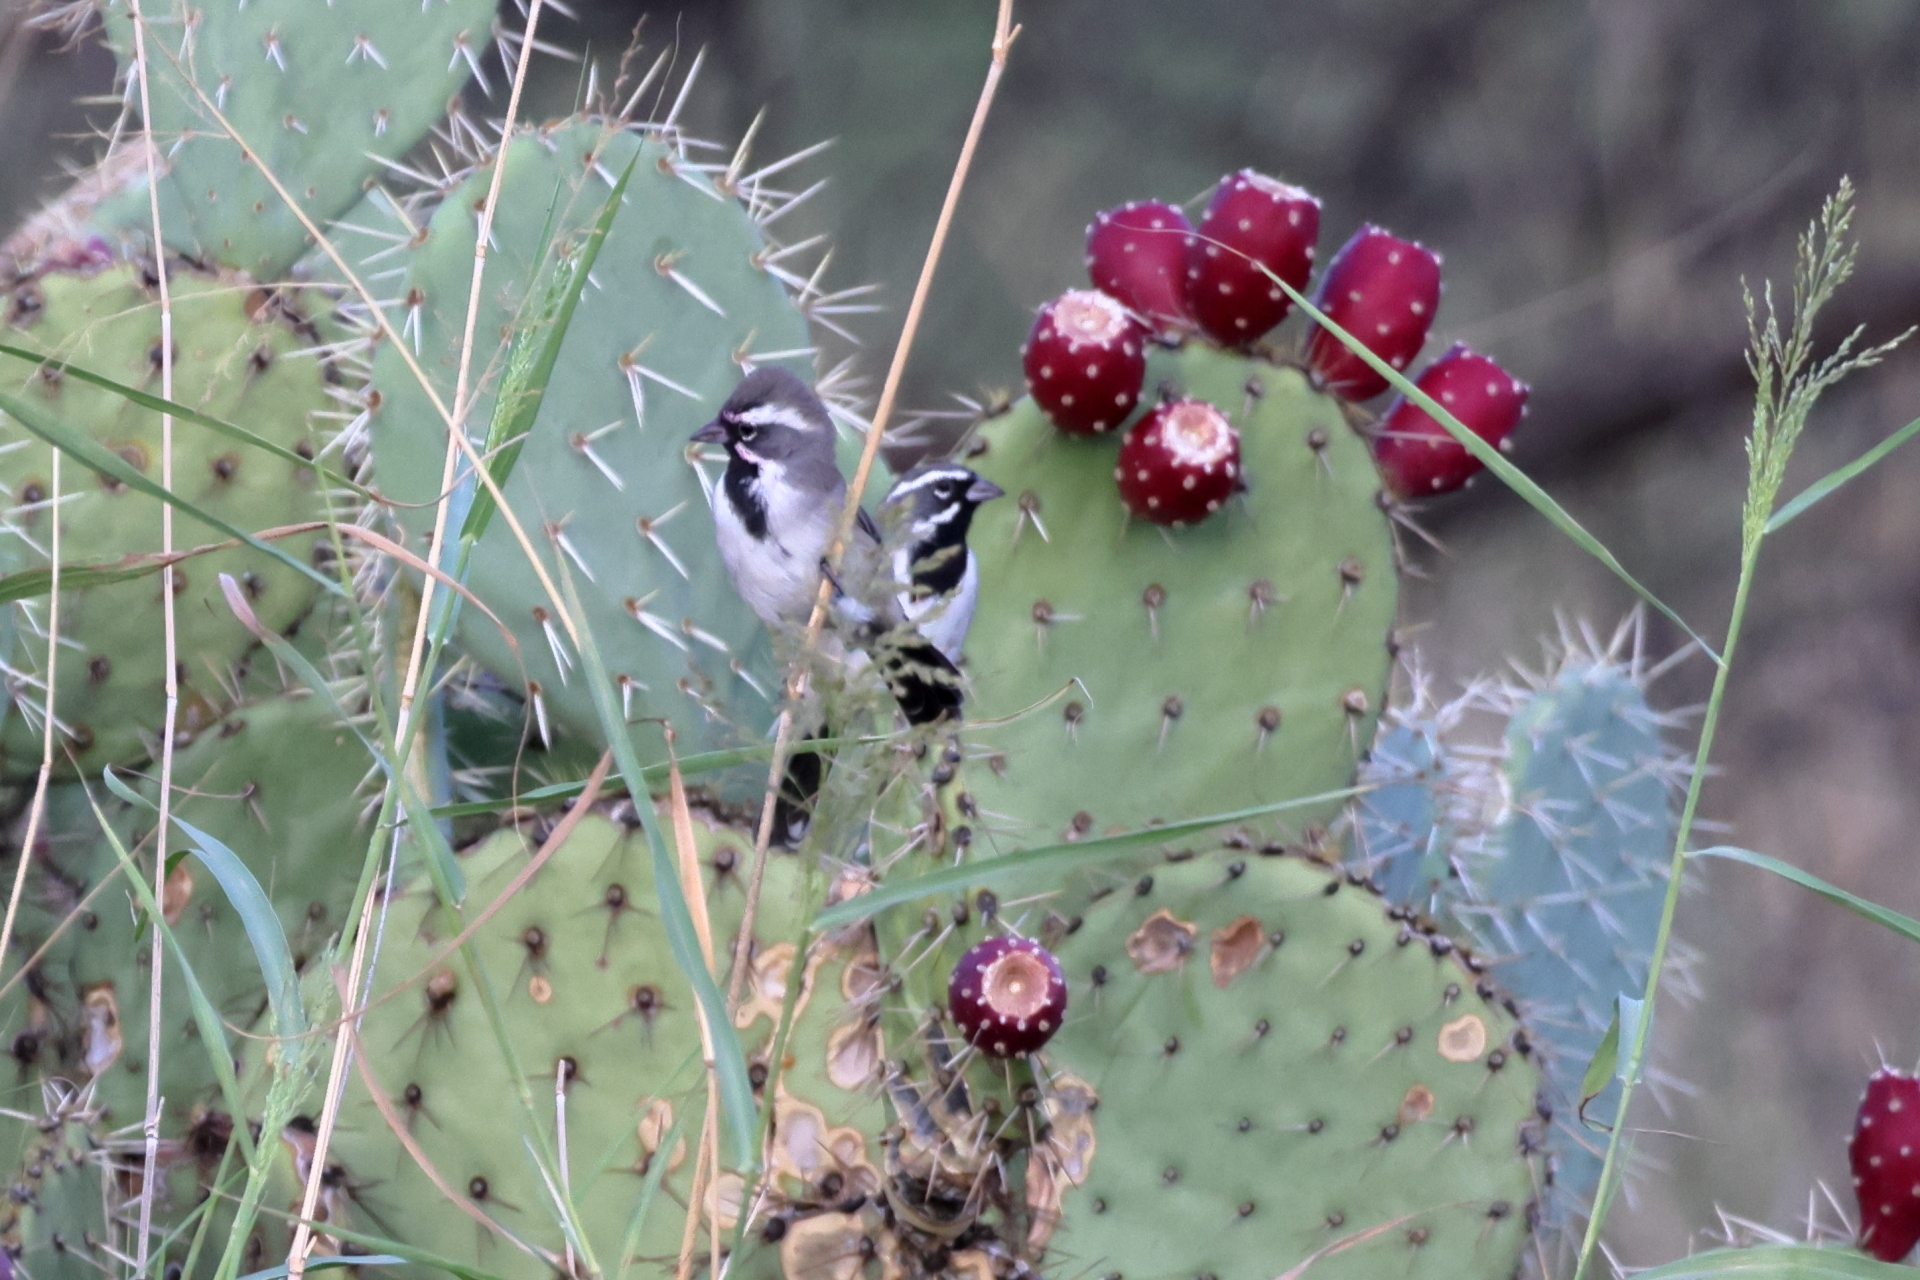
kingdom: Animalia
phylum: Chordata
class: Aves
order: Passeriformes
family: Passerellidae
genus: Amphispiza
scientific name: Amphispiza bilineata
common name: Black-throated sparrow
